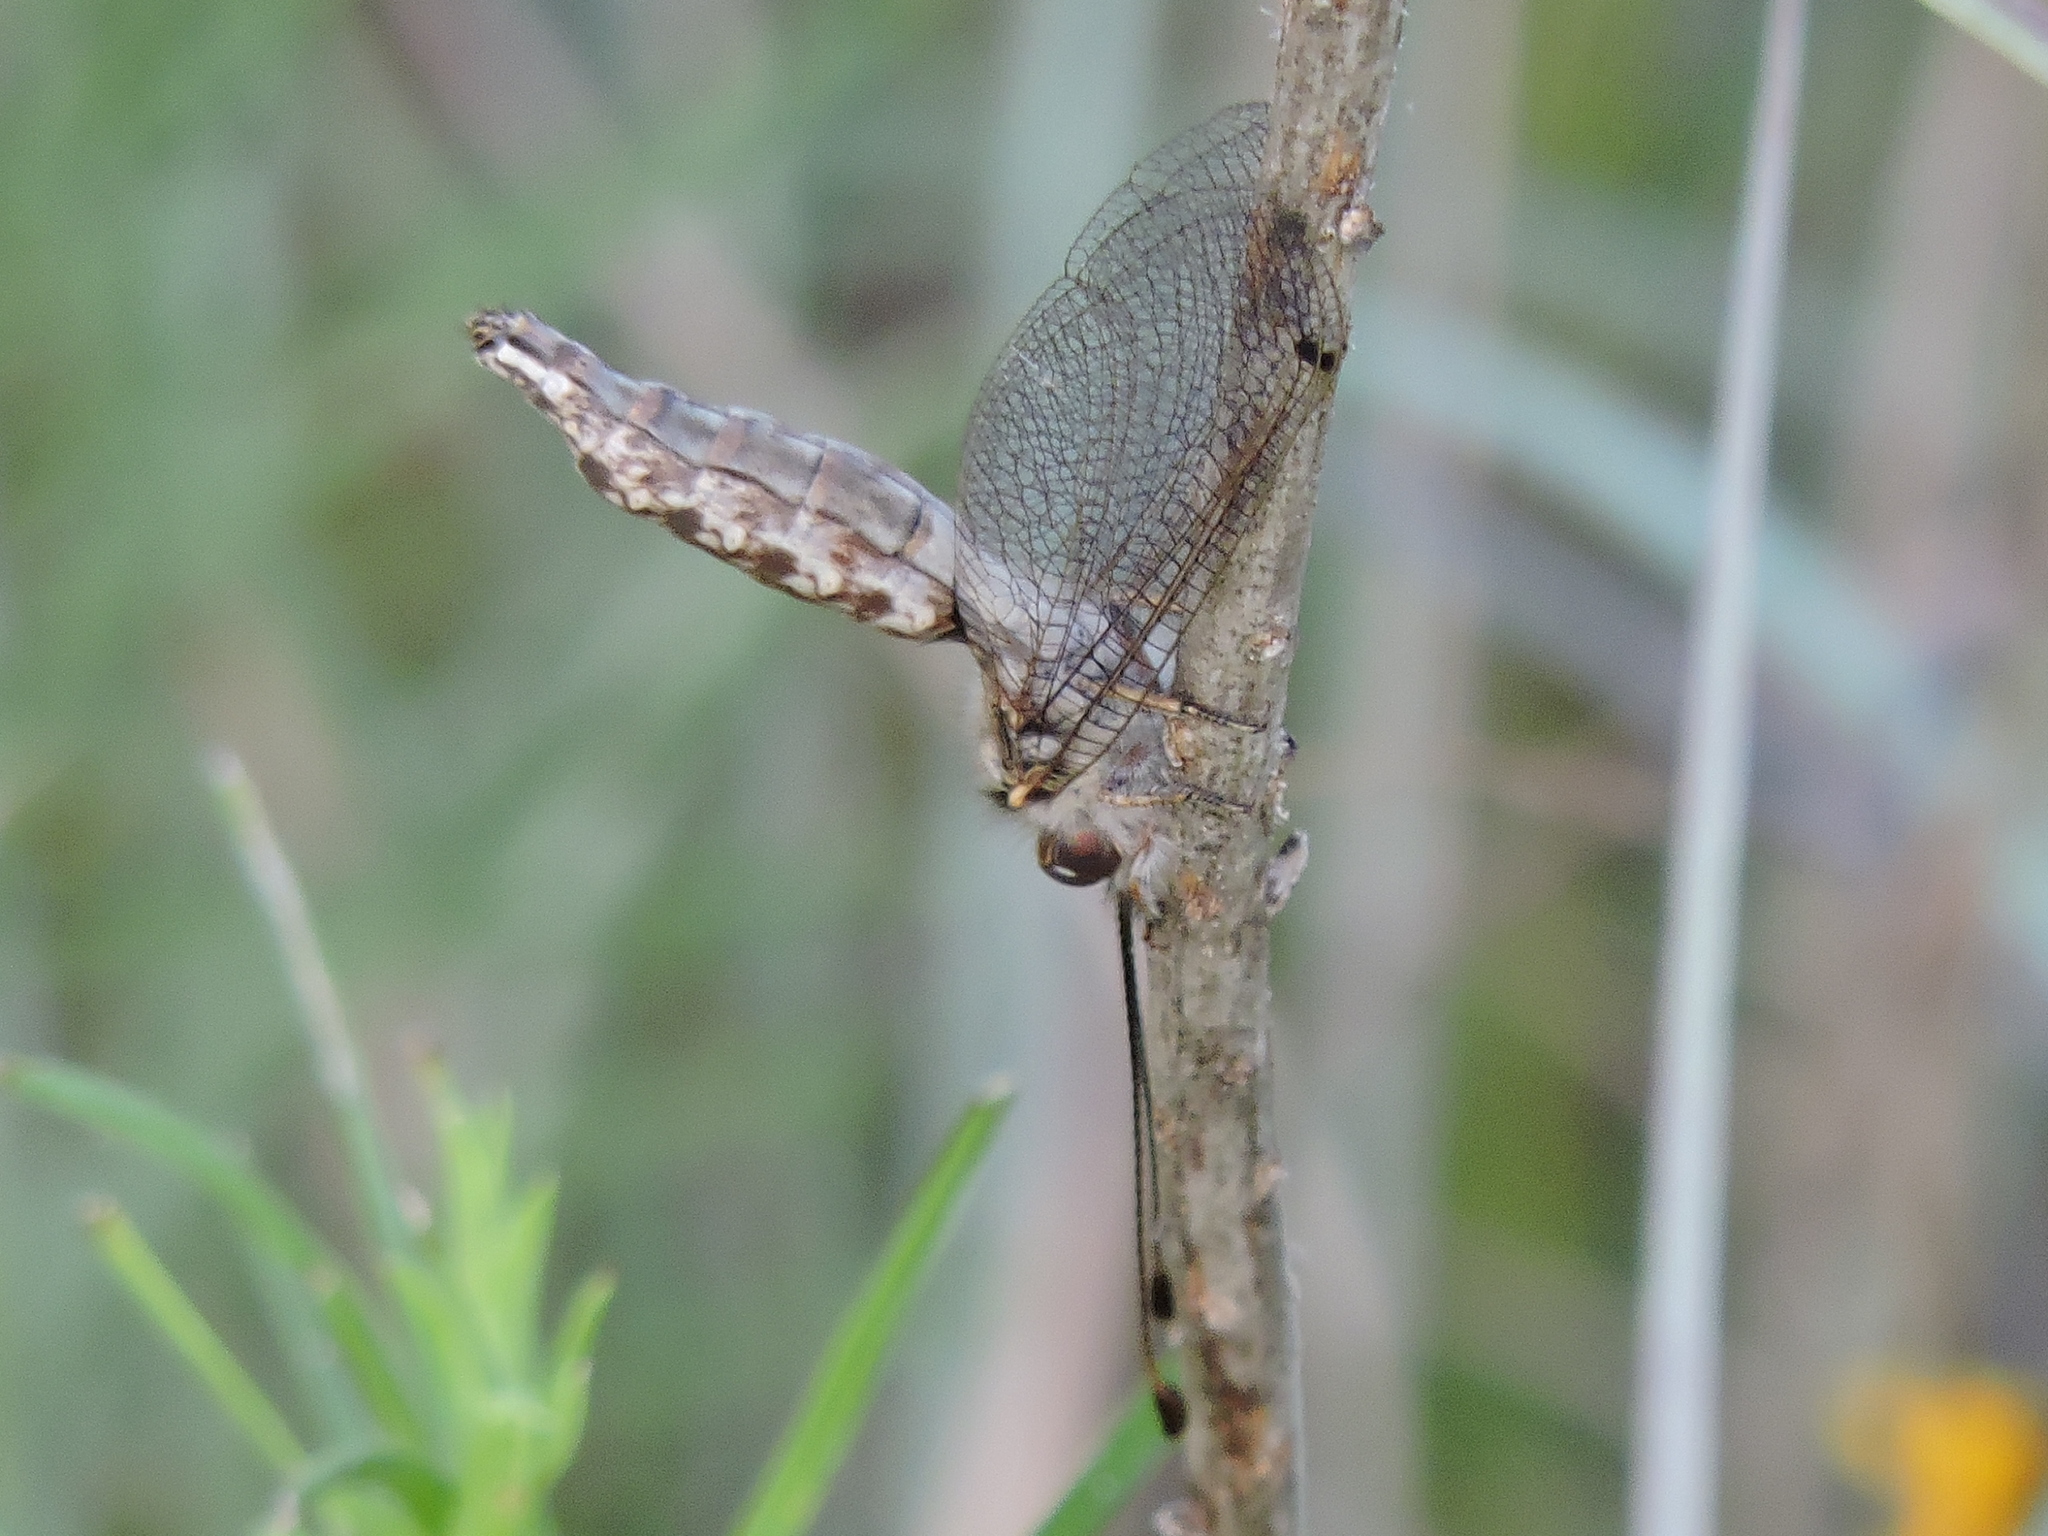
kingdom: Animalia
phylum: Arthropoda
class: Insecta
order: Neuroptera
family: Ascalaphidae
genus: Ululodes
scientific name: Ululodes macleayanus
